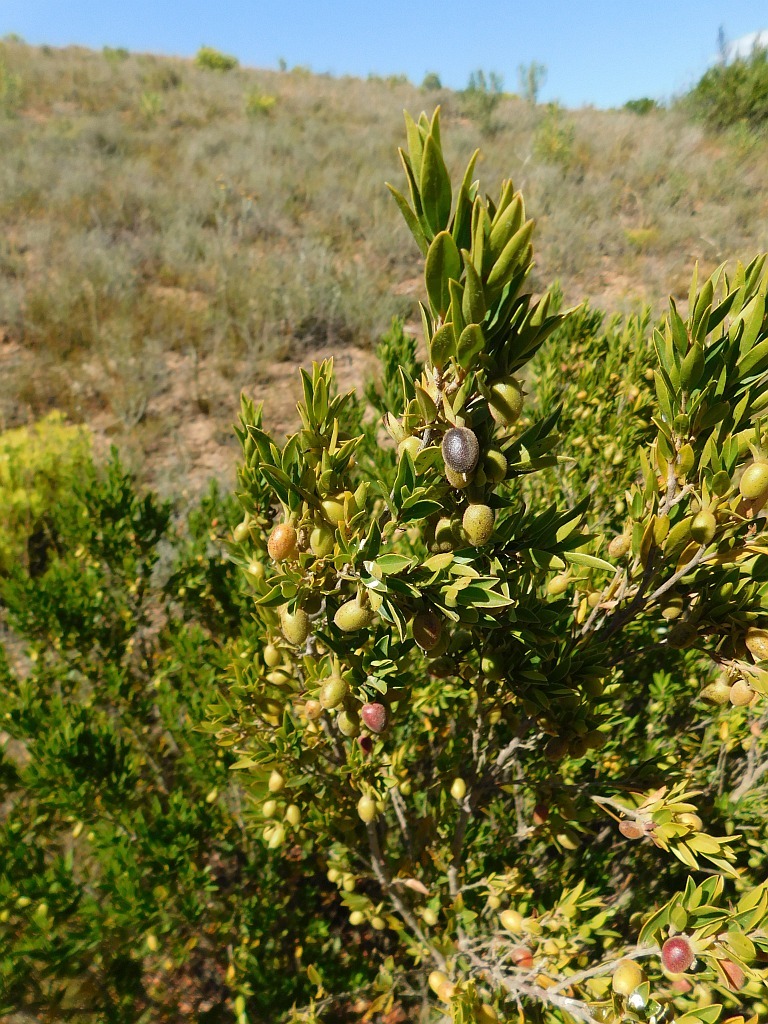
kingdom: Plantae
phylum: Tracheophyta
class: Magnoliopsida
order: Ericales
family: Ebenaceae
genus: Diospyros
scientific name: Diospyros glabra
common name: Fynbos star apple
